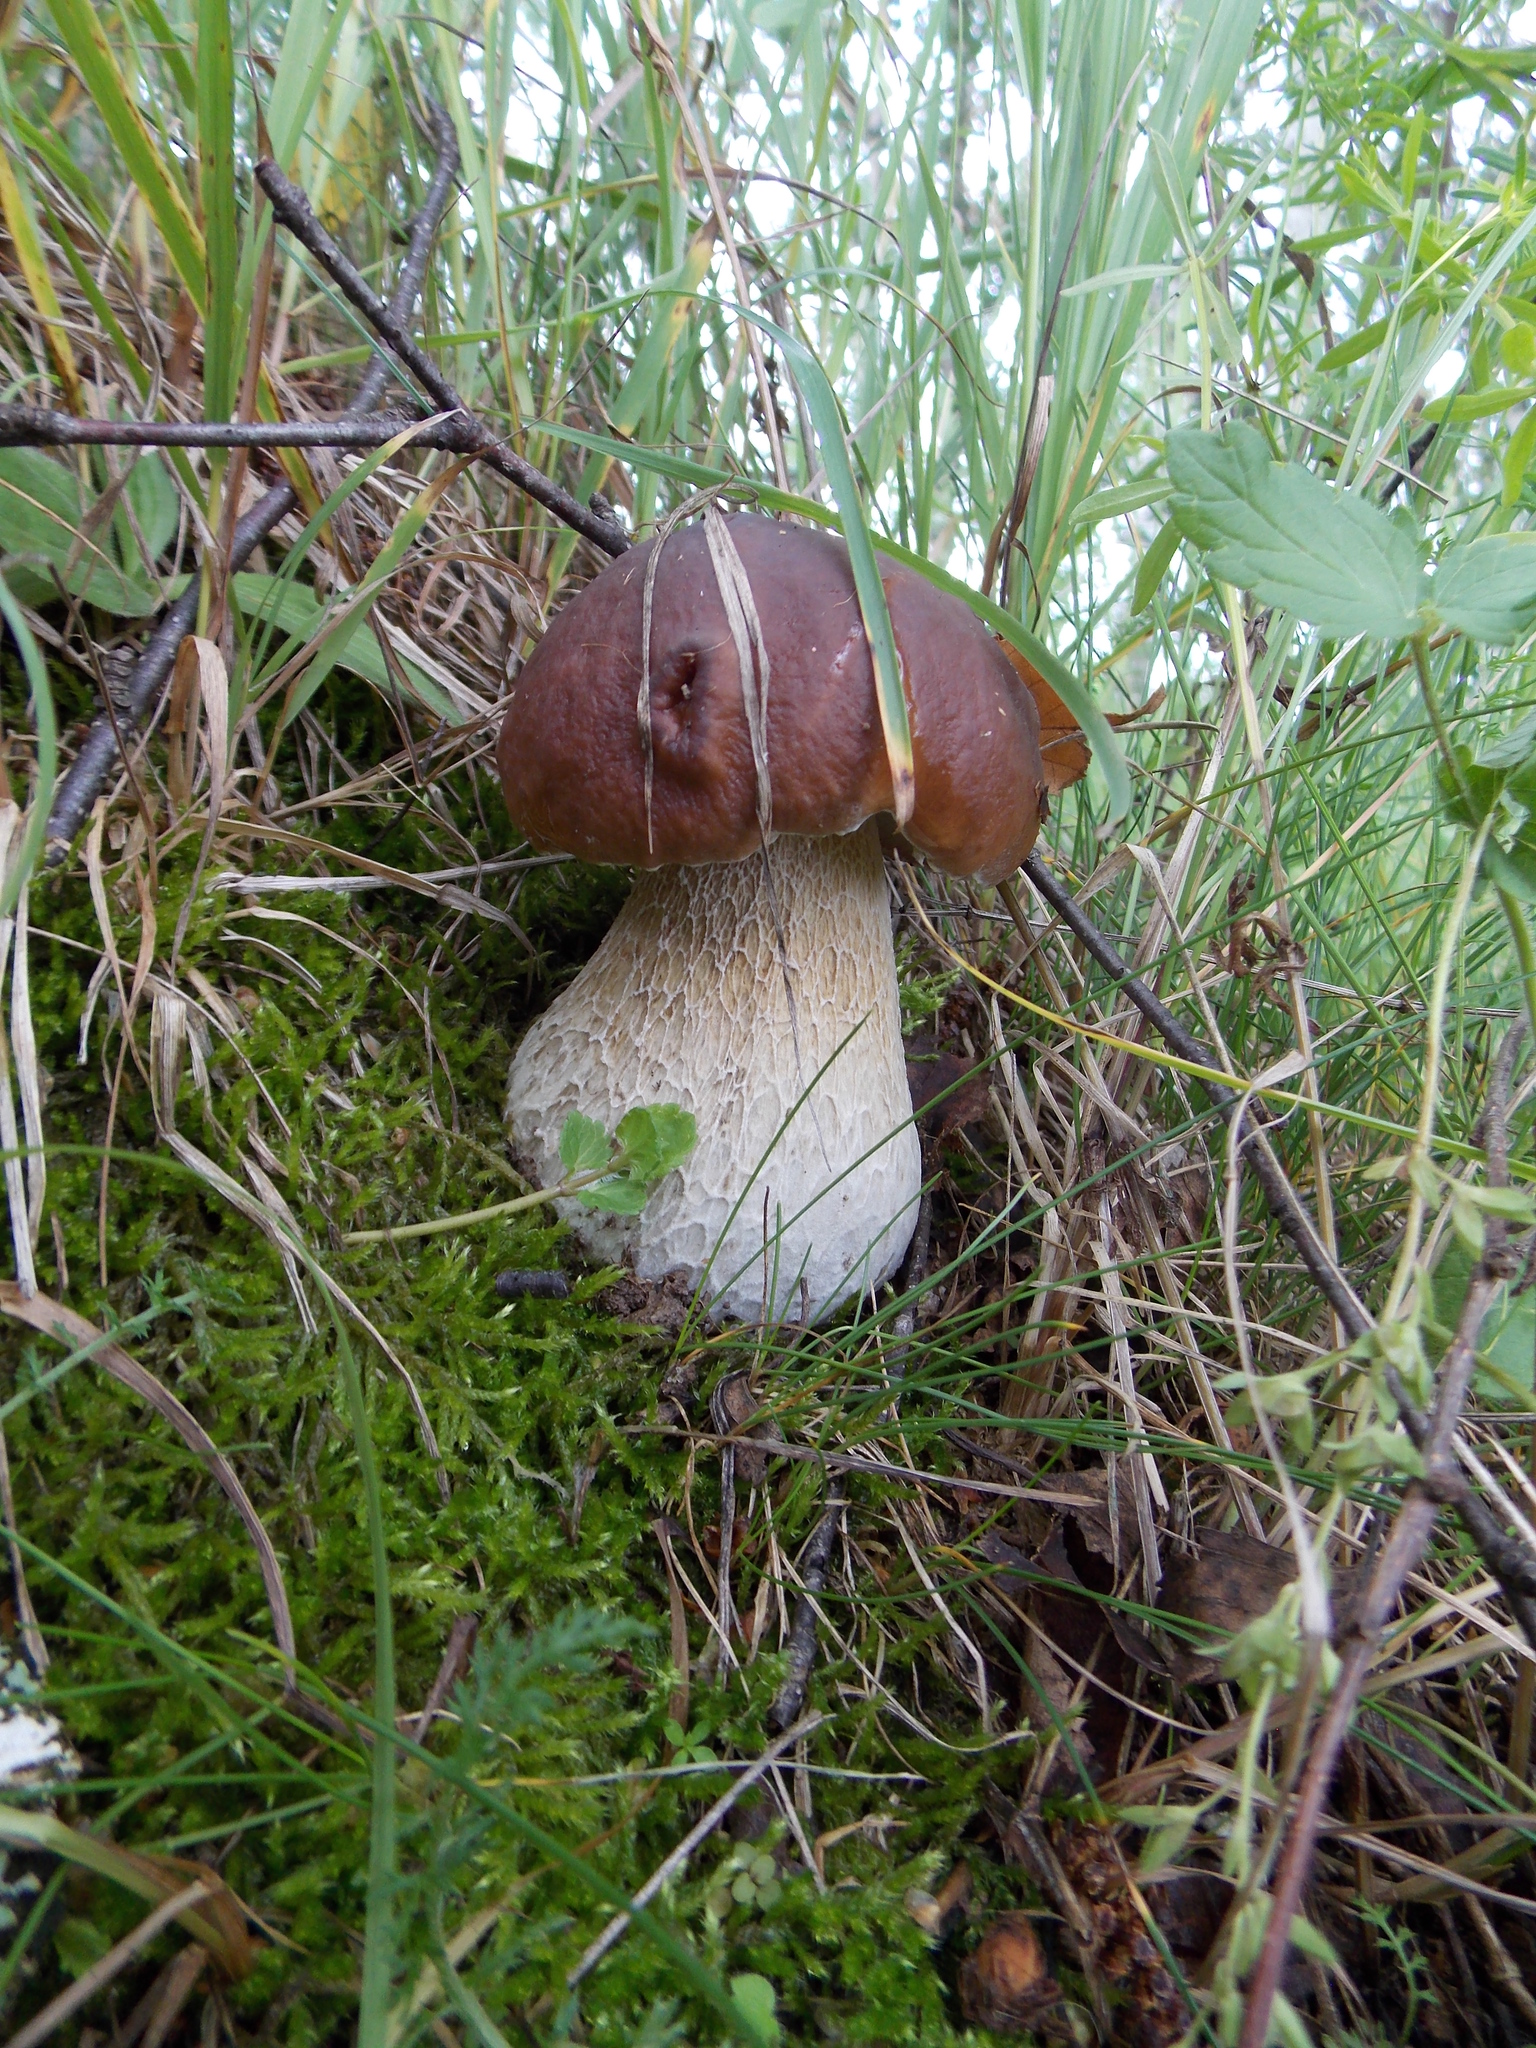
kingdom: Fungi
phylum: Basidiomycota
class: Agaricomycetes
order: Boletales
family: Boletaceae
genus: Boletus
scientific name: Boletus edulis
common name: Cep
